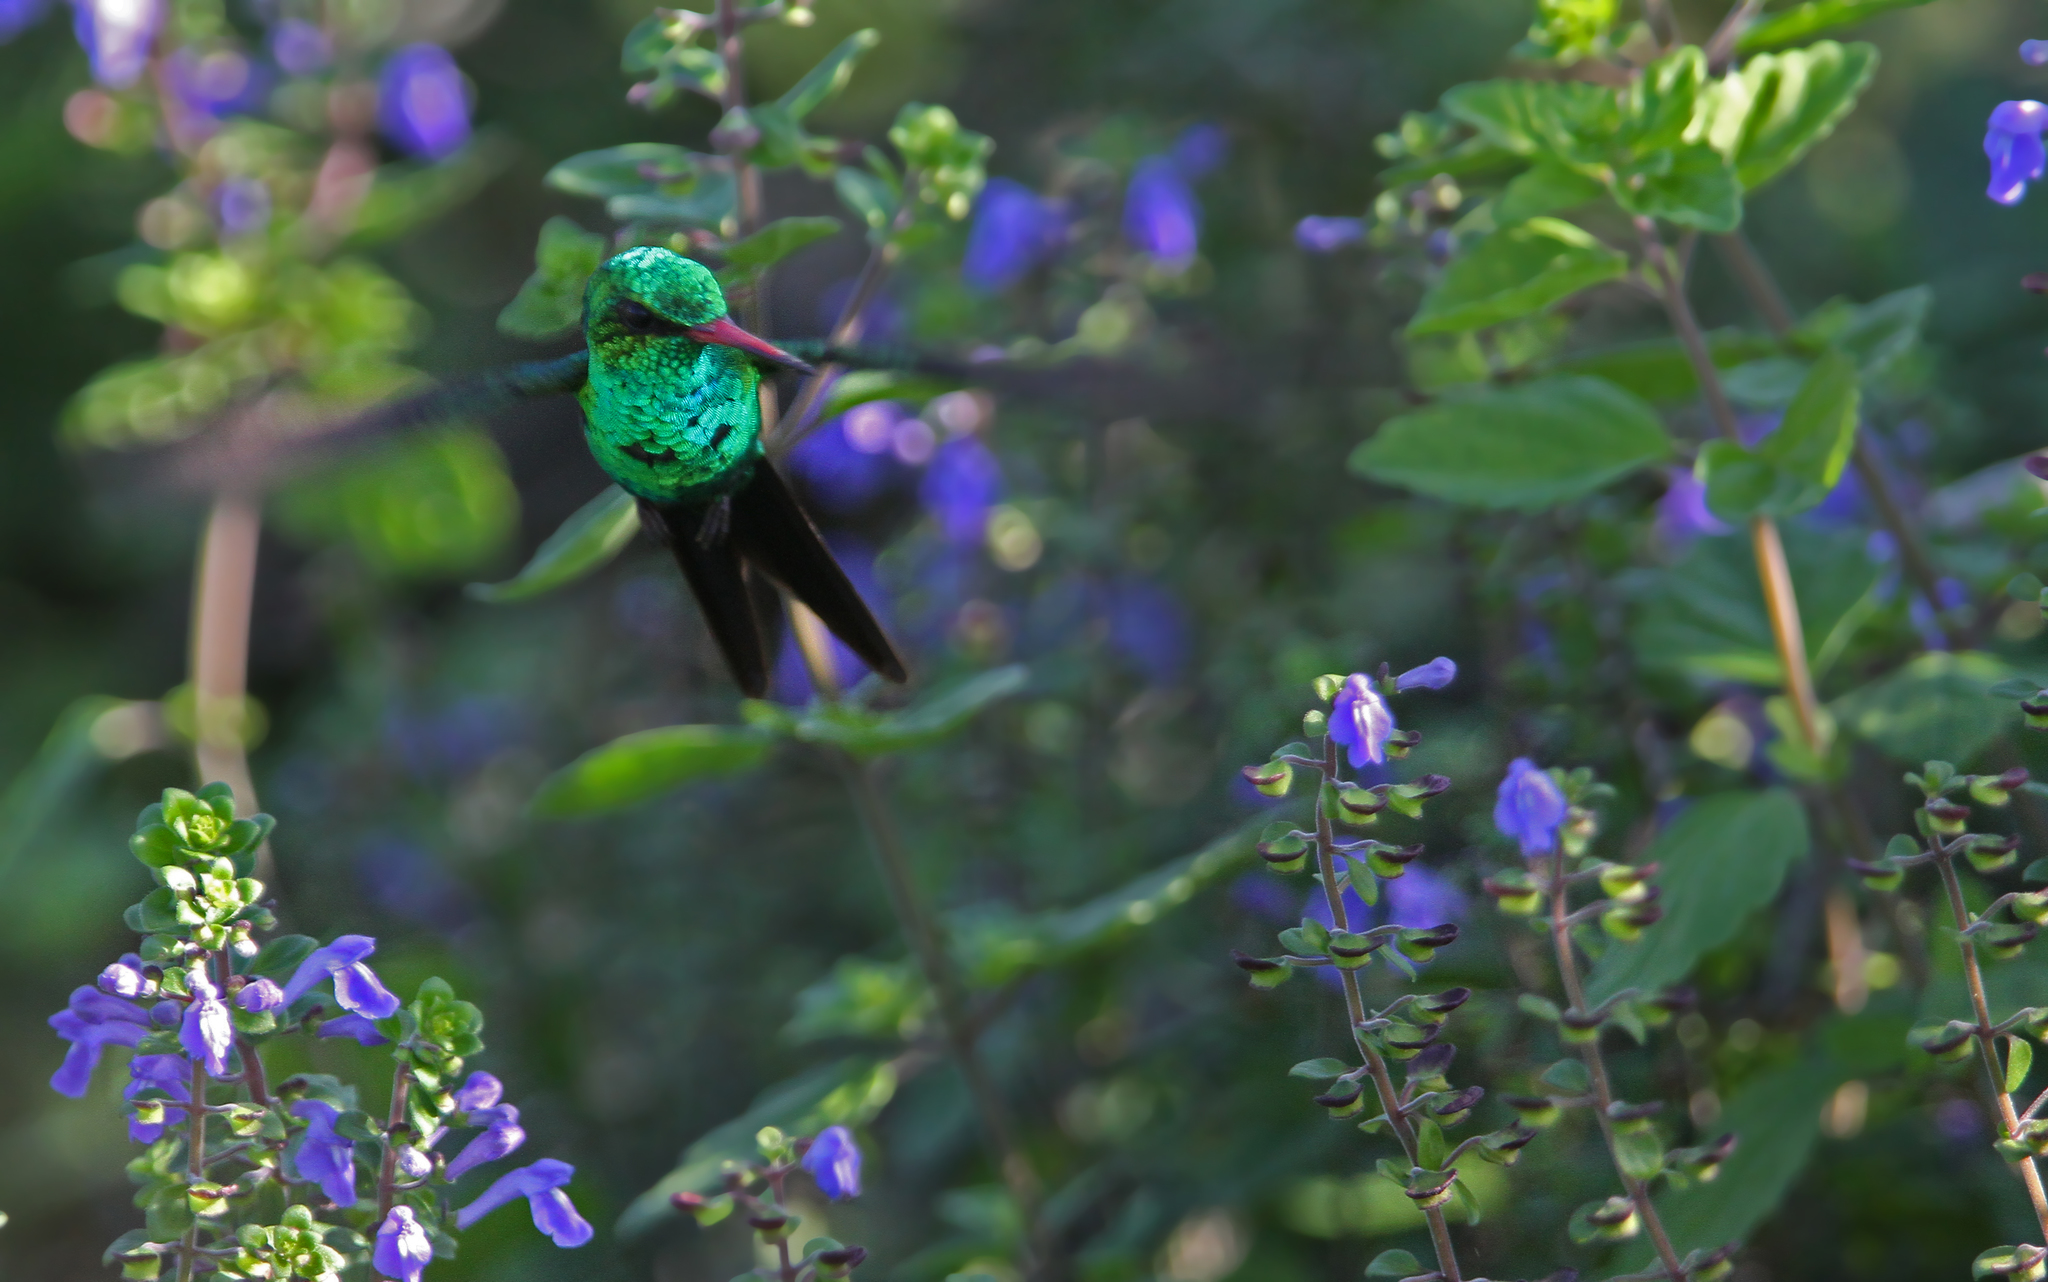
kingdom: Animalia
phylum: Chordata
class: Aves
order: Apodiformes
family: Trochilidae
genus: Cynanthus
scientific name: Cynanthus forficatus
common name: Cozumel emerald
